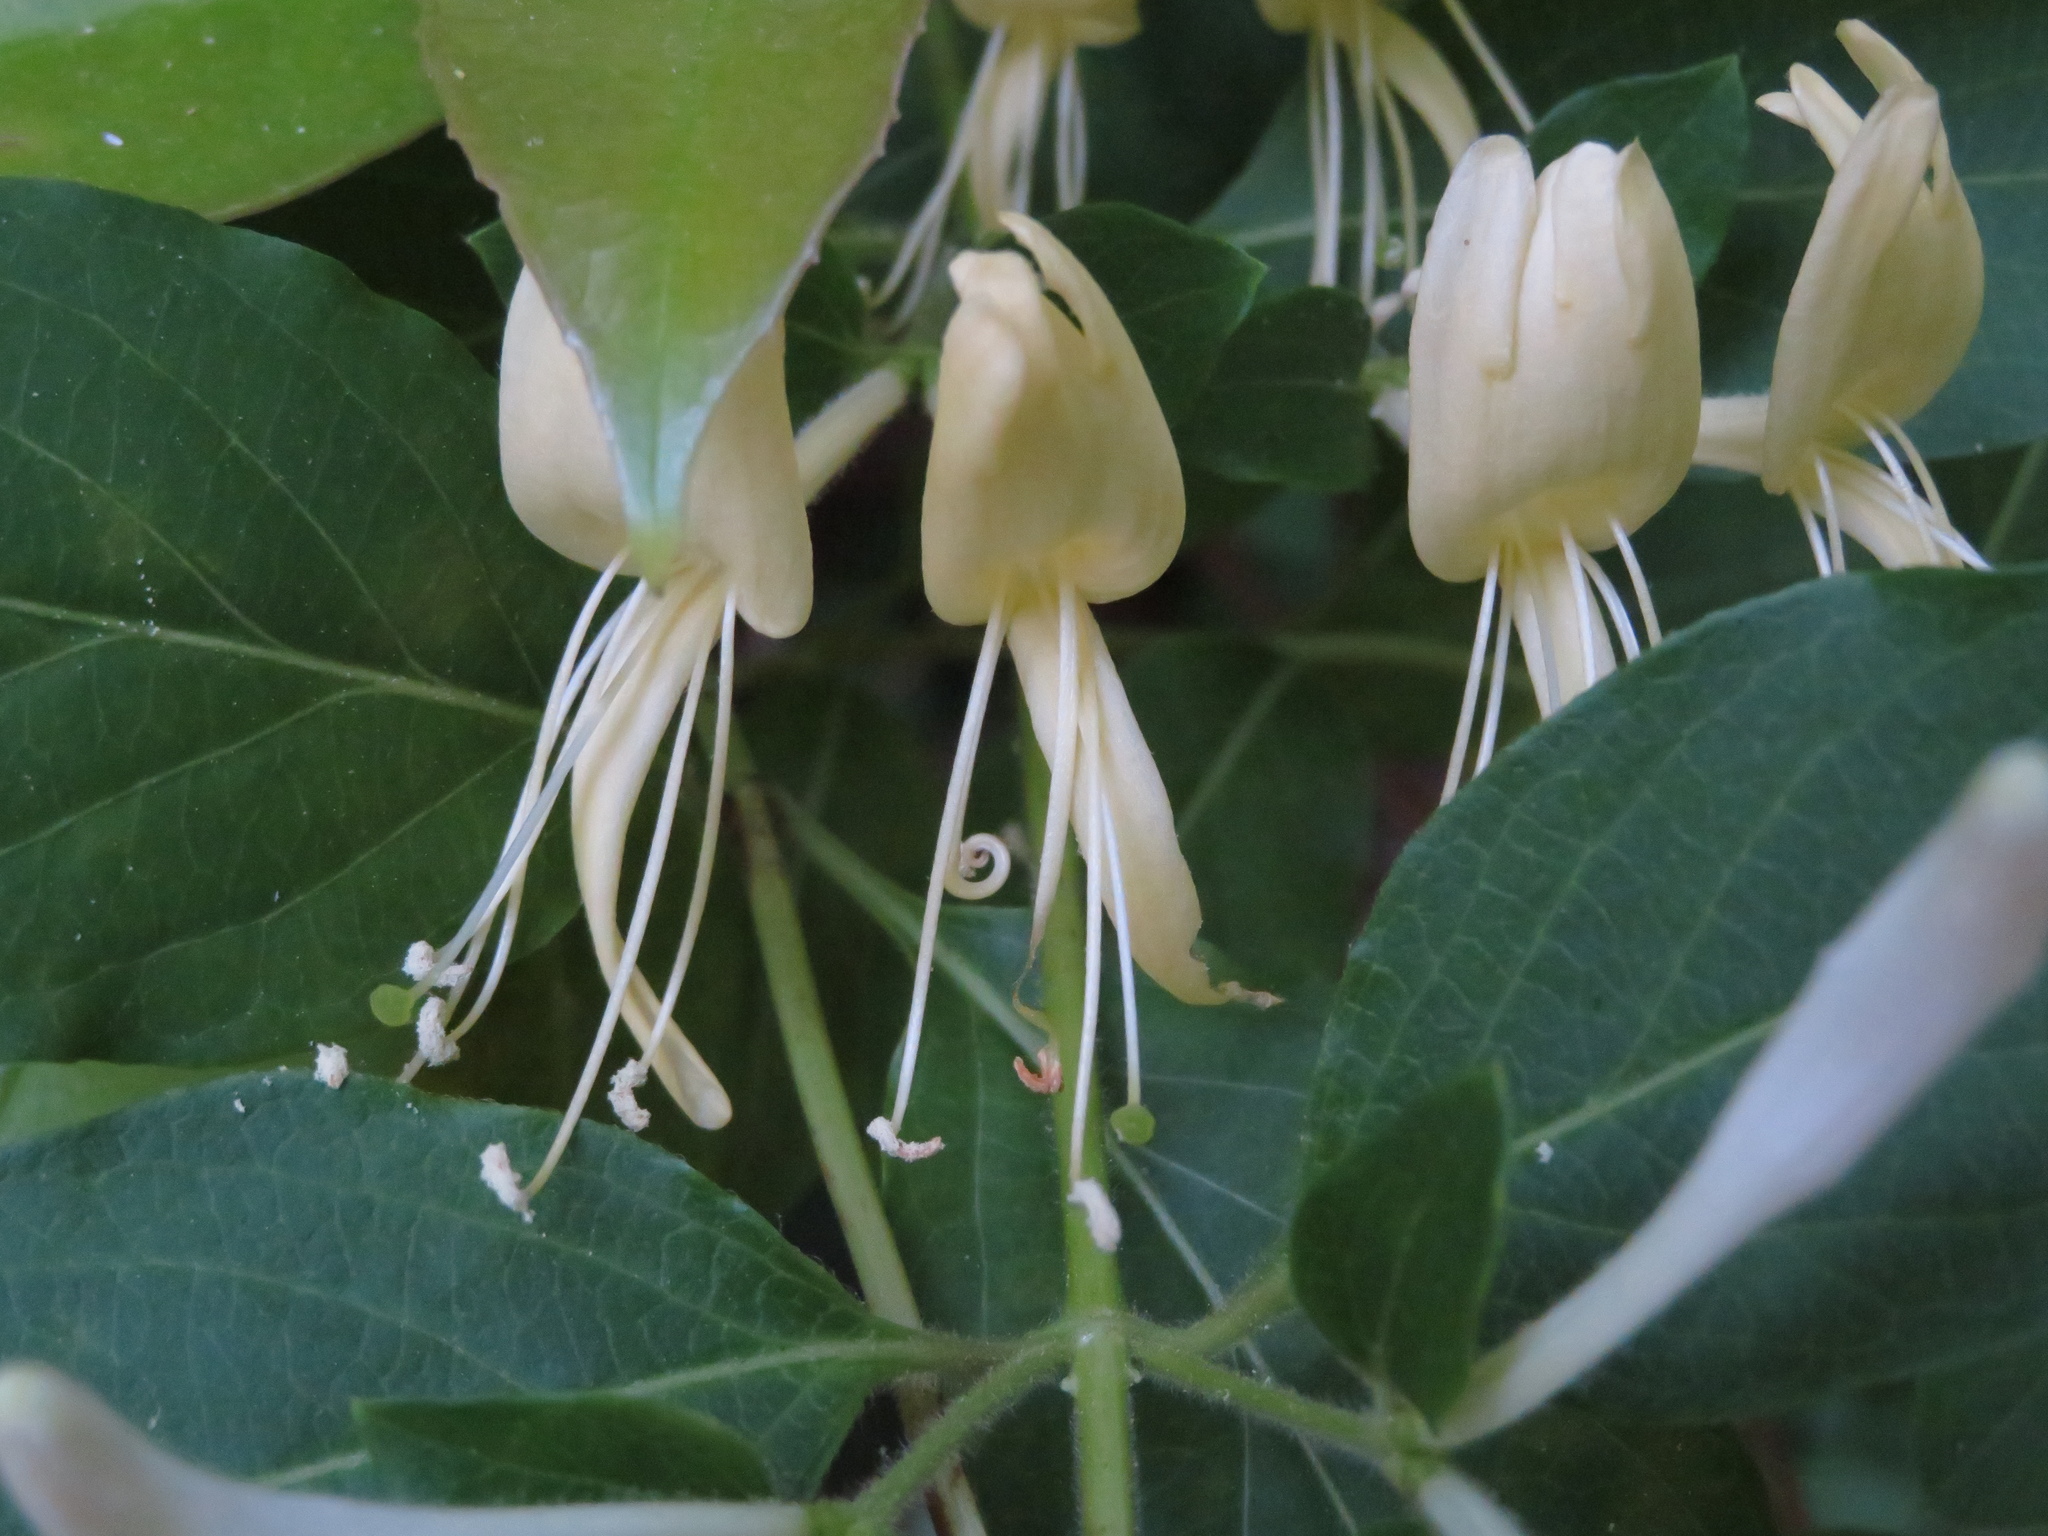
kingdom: Plantae
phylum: Tracheophyta
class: Magnoliopsida
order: Dipsacales
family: Caprifoliaceae
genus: Lonicera
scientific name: Lonicera japonica
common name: Japanese honeysuckle
